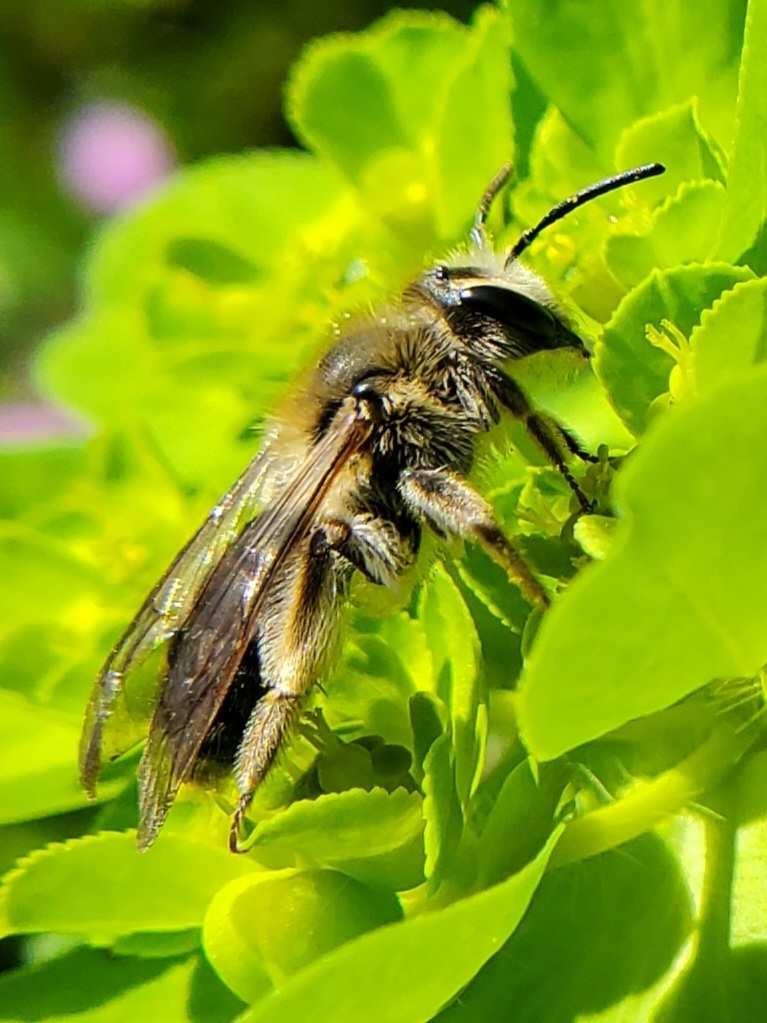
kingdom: Animalia
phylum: Arthropoda
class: Insecta
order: Hymenoptera
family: Andrenidae
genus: Andrena
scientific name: Andrena barbara
